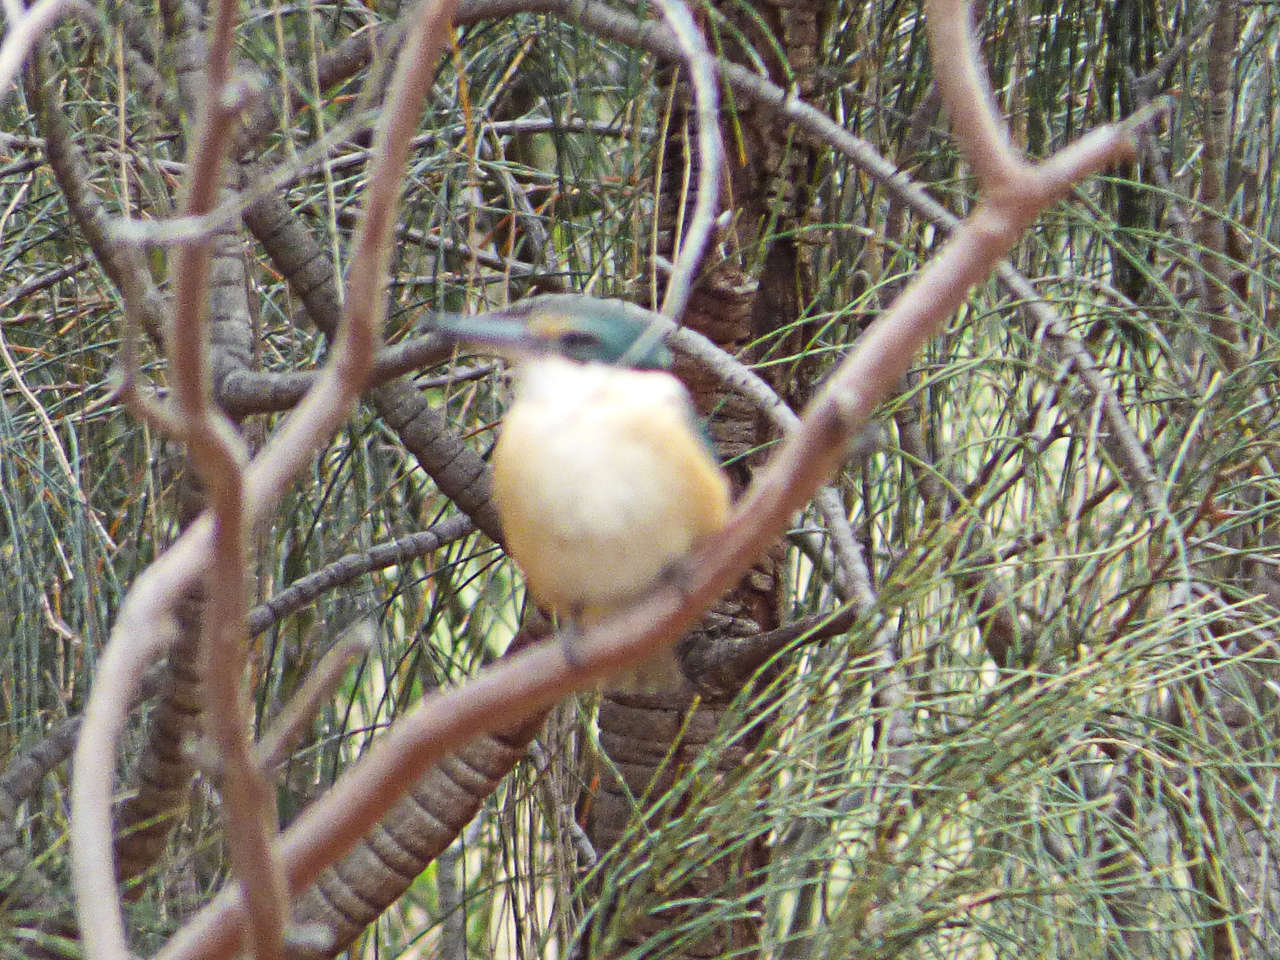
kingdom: Animalia
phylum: Chordata
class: Aves
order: Coraciiformes
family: Alcedinidae
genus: Todiramphus
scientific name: Todiramphus sanctus
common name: Sacred kingfisher
